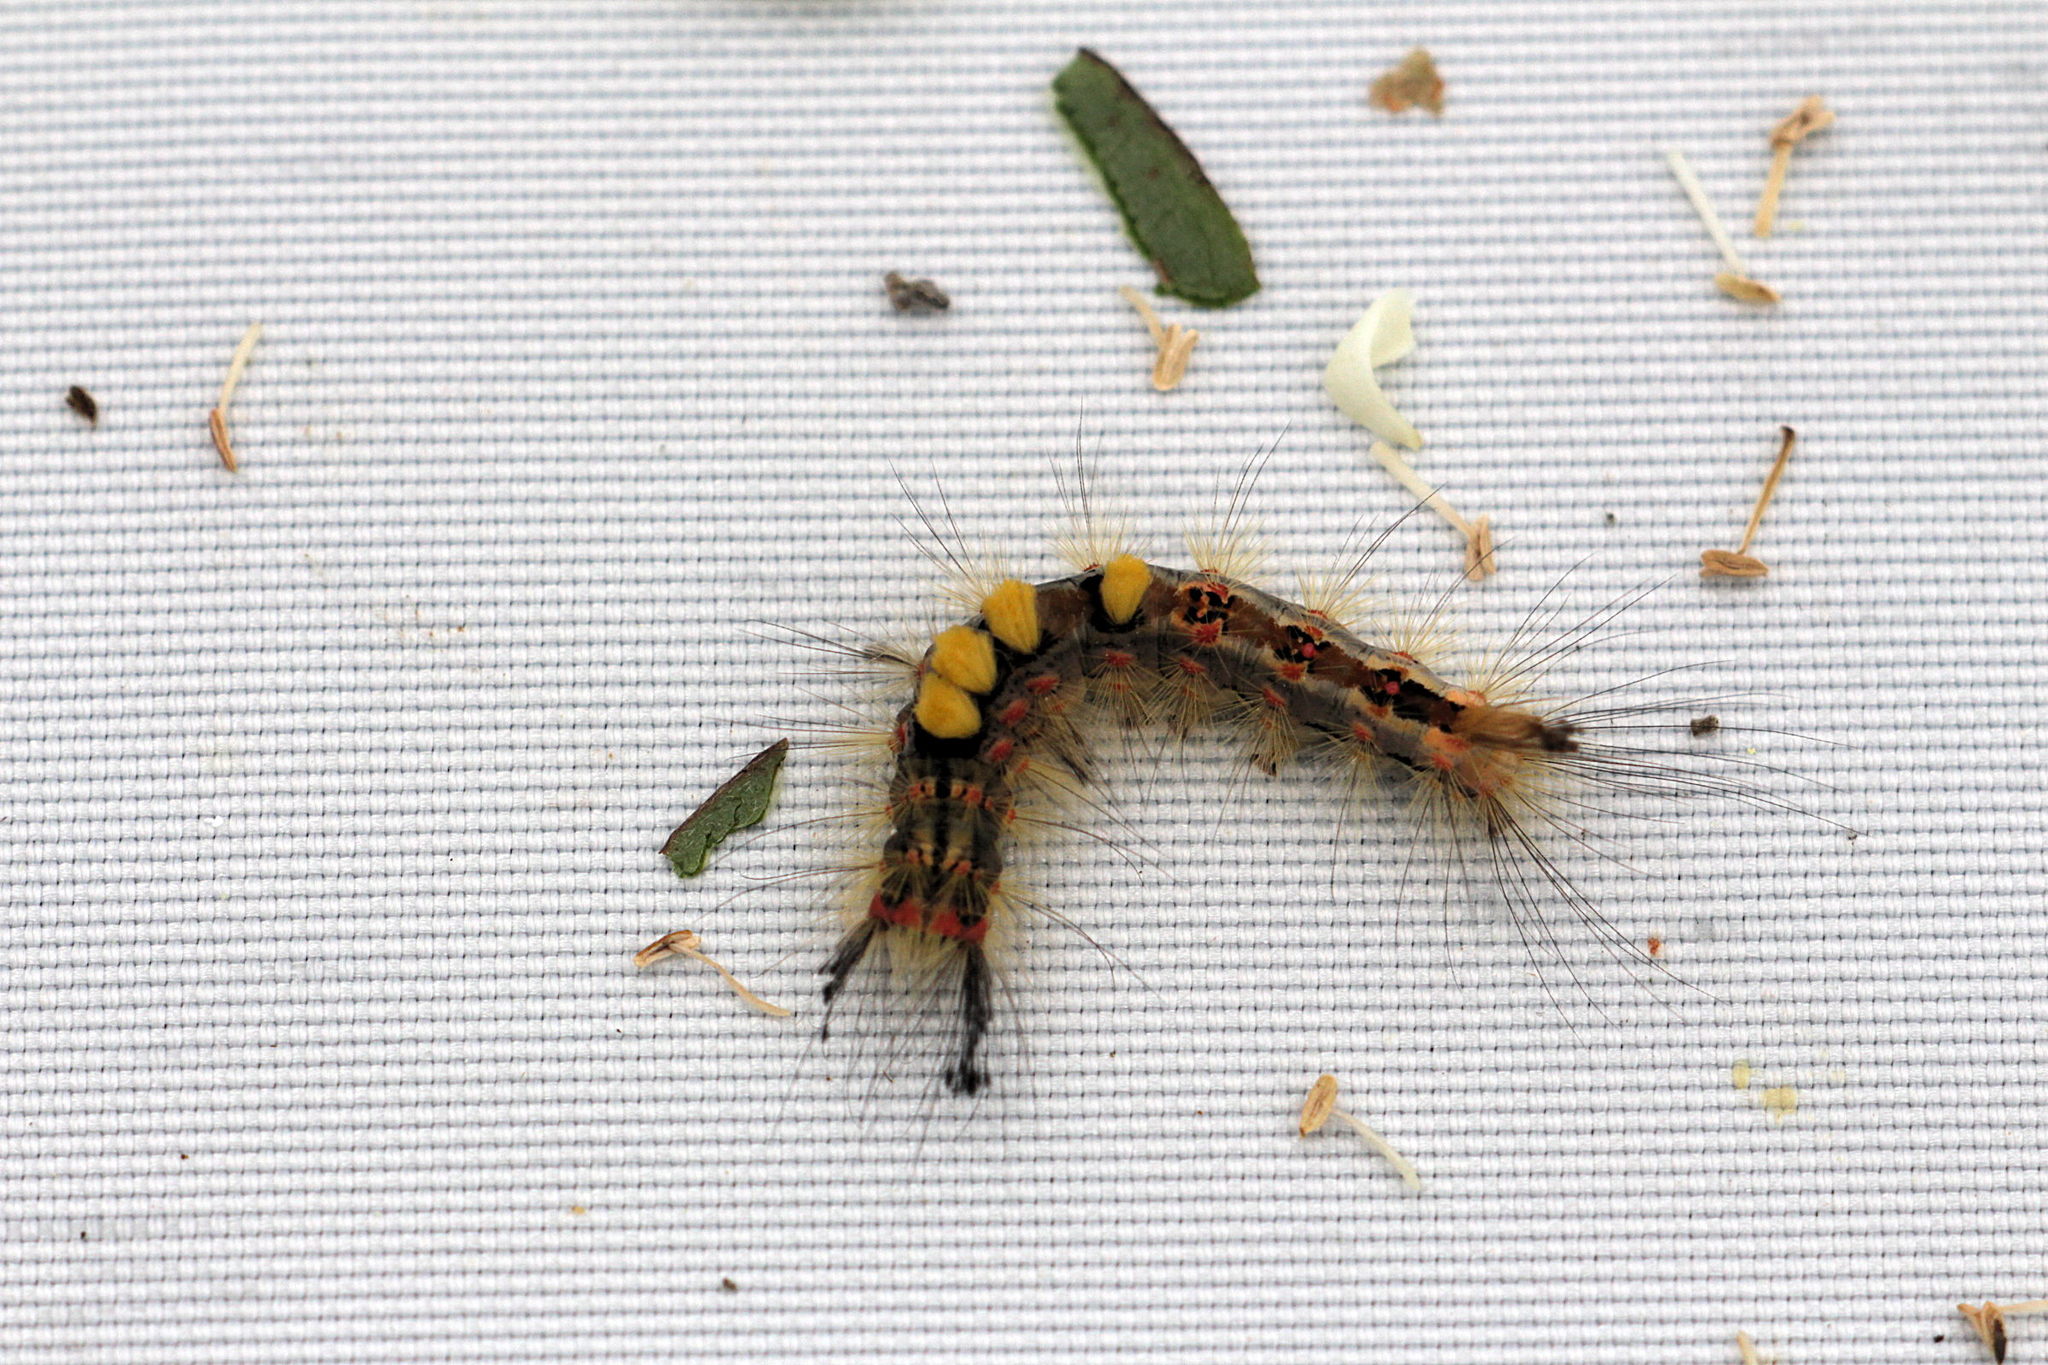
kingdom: Animalia
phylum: Arthropoda
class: Insecta
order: Lepidoptera
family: Erebidae
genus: Orgyia
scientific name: Orgyia antiqua
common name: Vapourer
